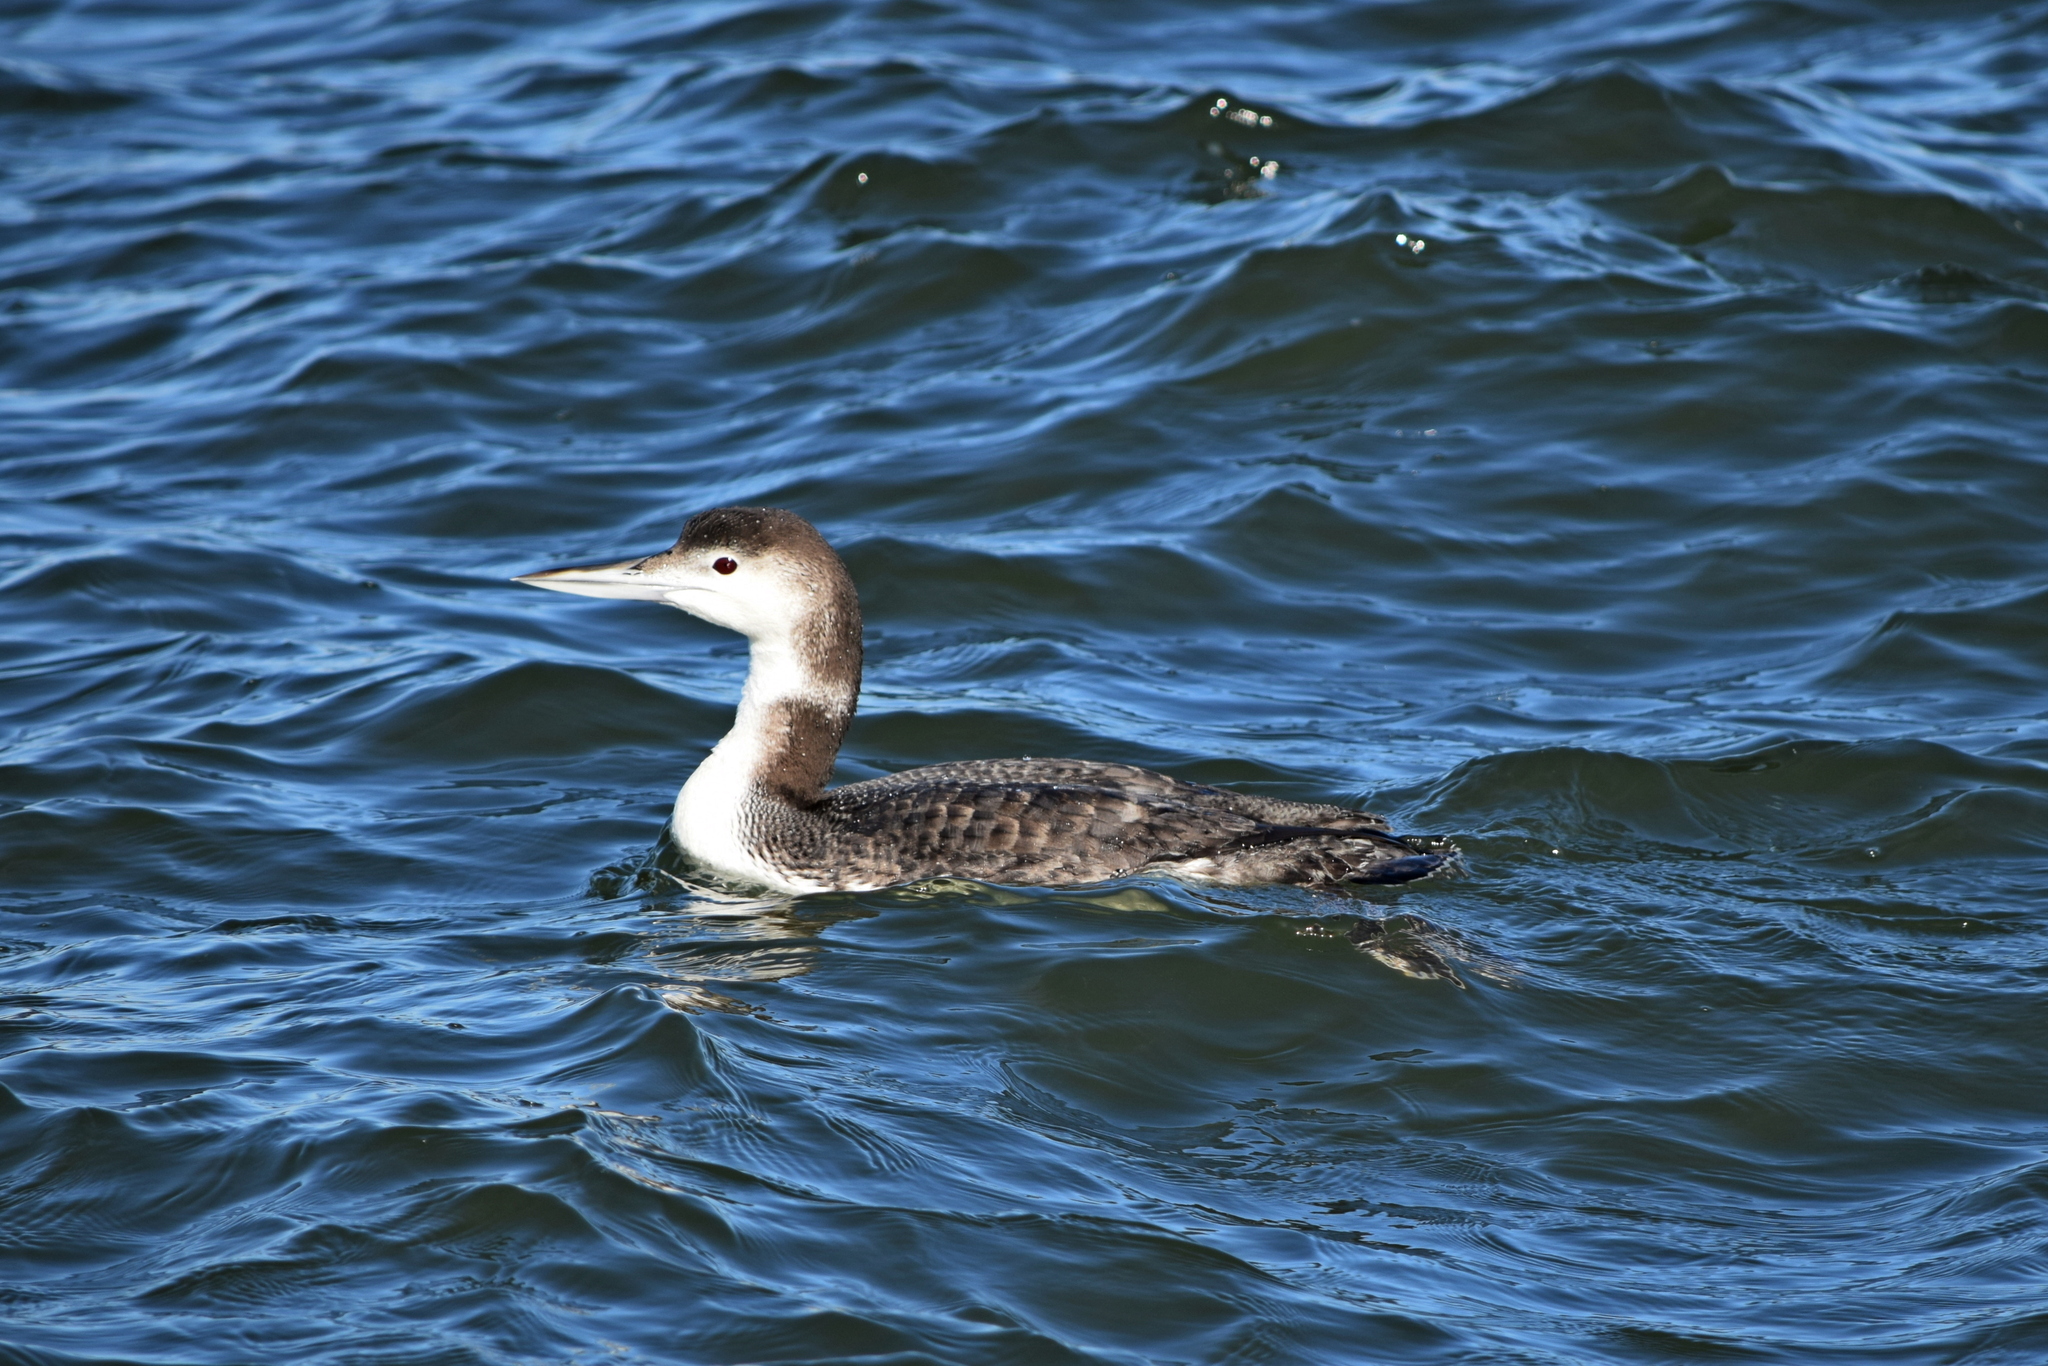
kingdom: Animalia
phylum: Chordata
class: Aves
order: Gaviiformes
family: Gaviidae
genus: Gavia
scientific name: Gavia immer
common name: Common loon
